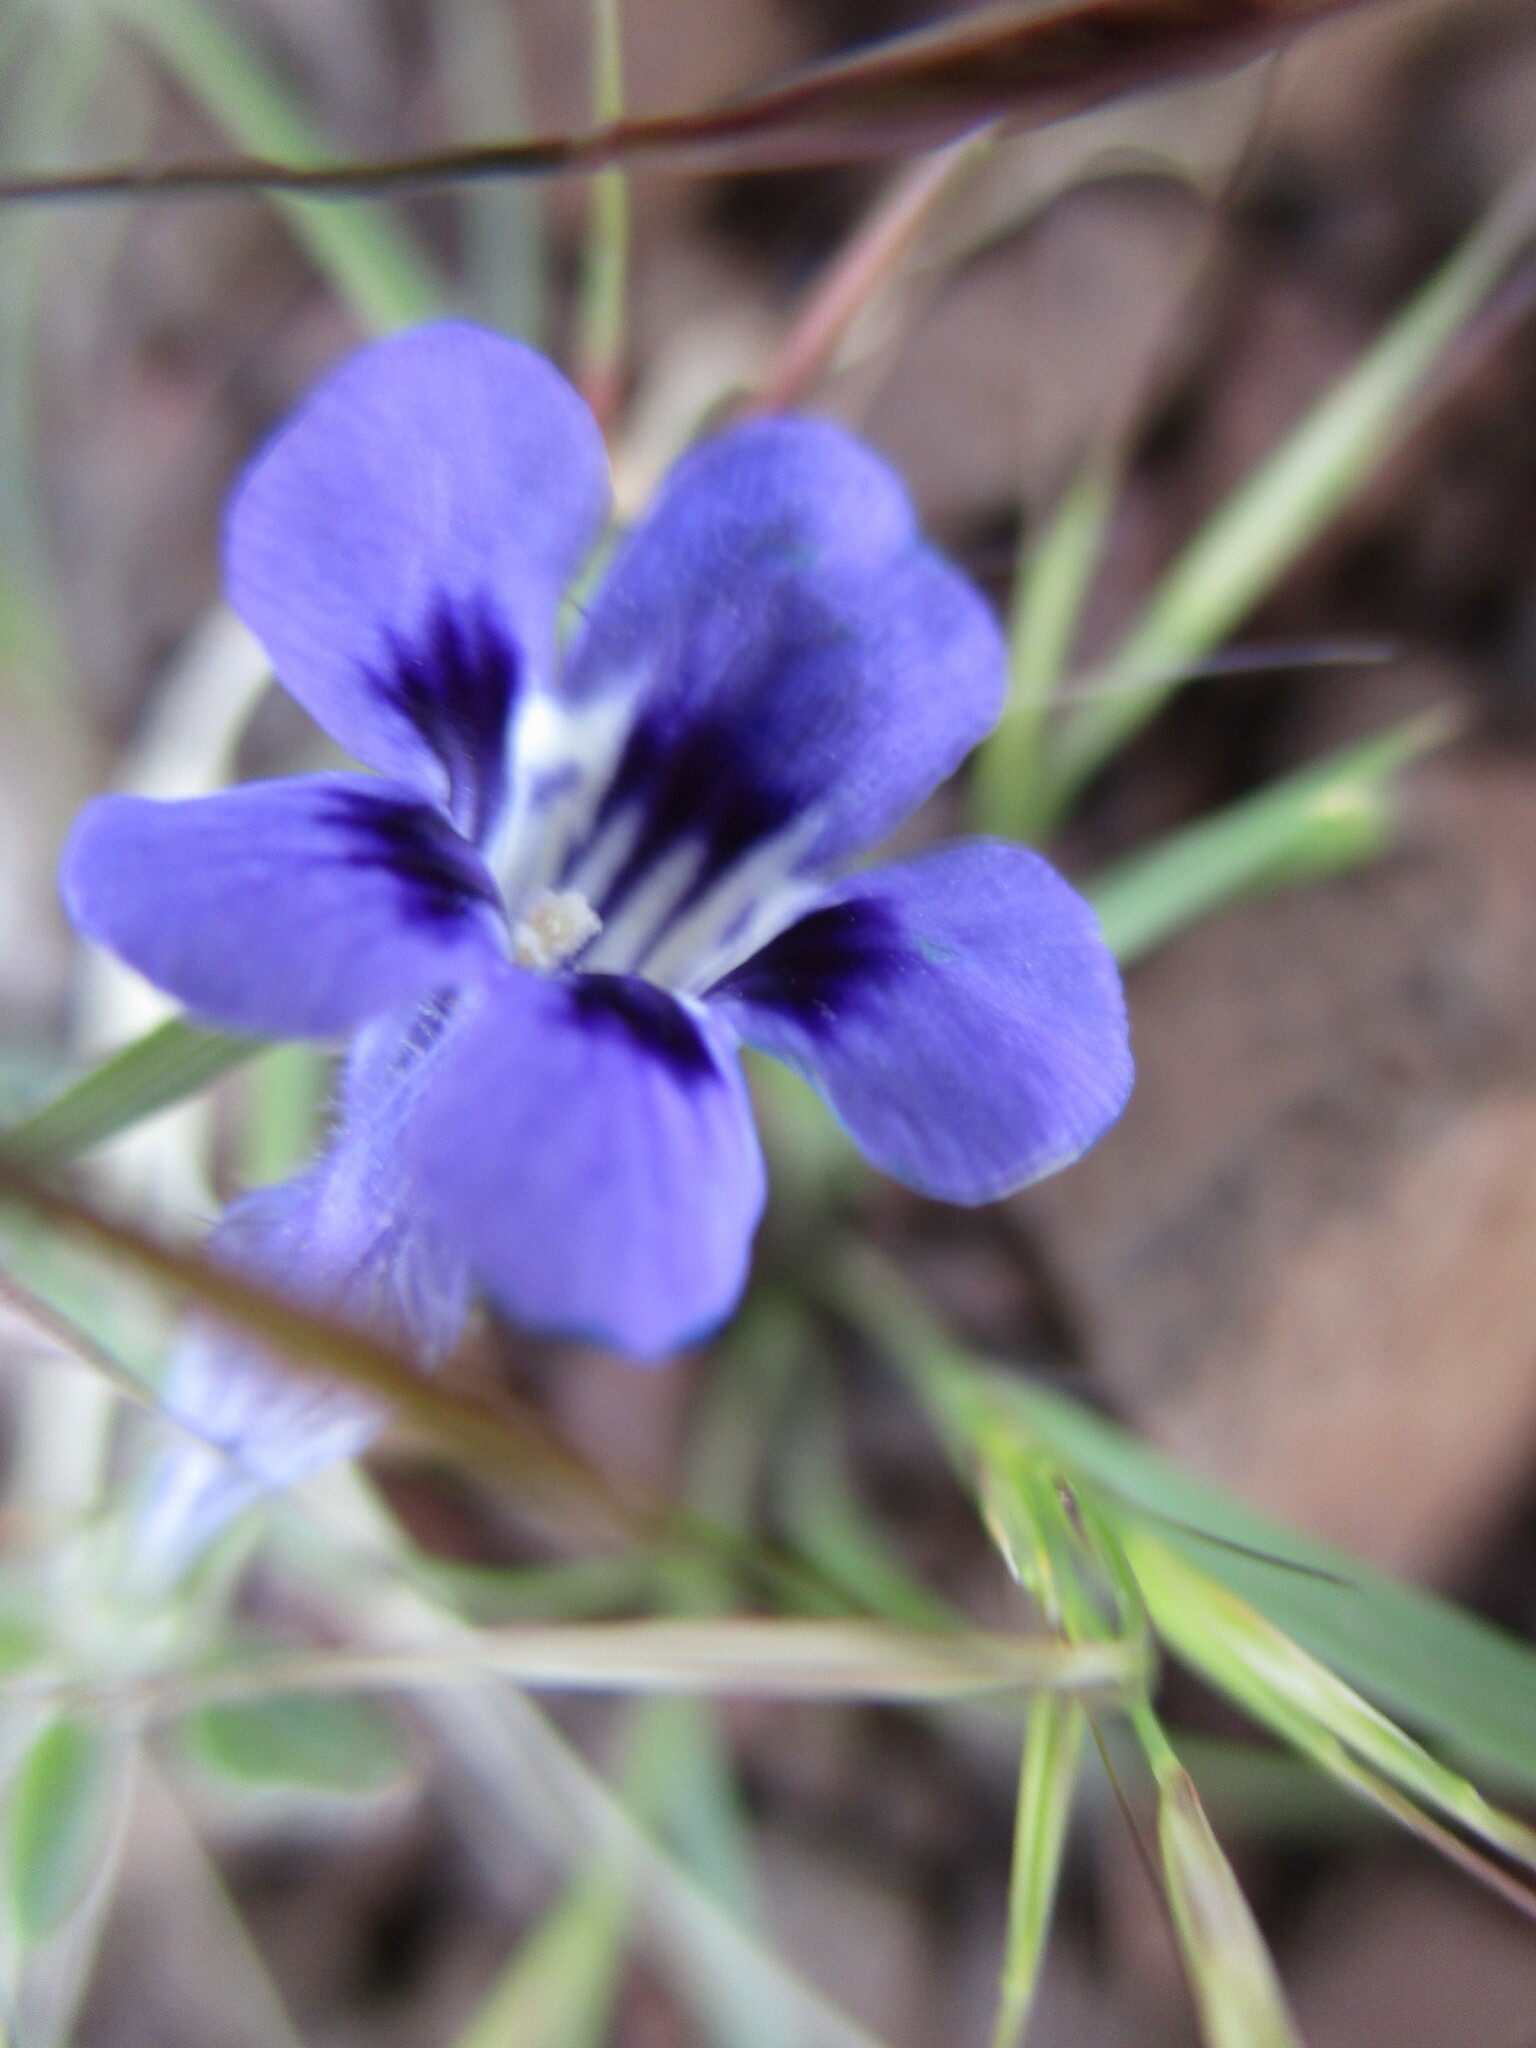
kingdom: Plantae
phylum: Tracheophyta
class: Magnoliopsida
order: Lamiales
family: Scrophulariaceae
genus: Aptosimum
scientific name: Aptosimum arenarium
